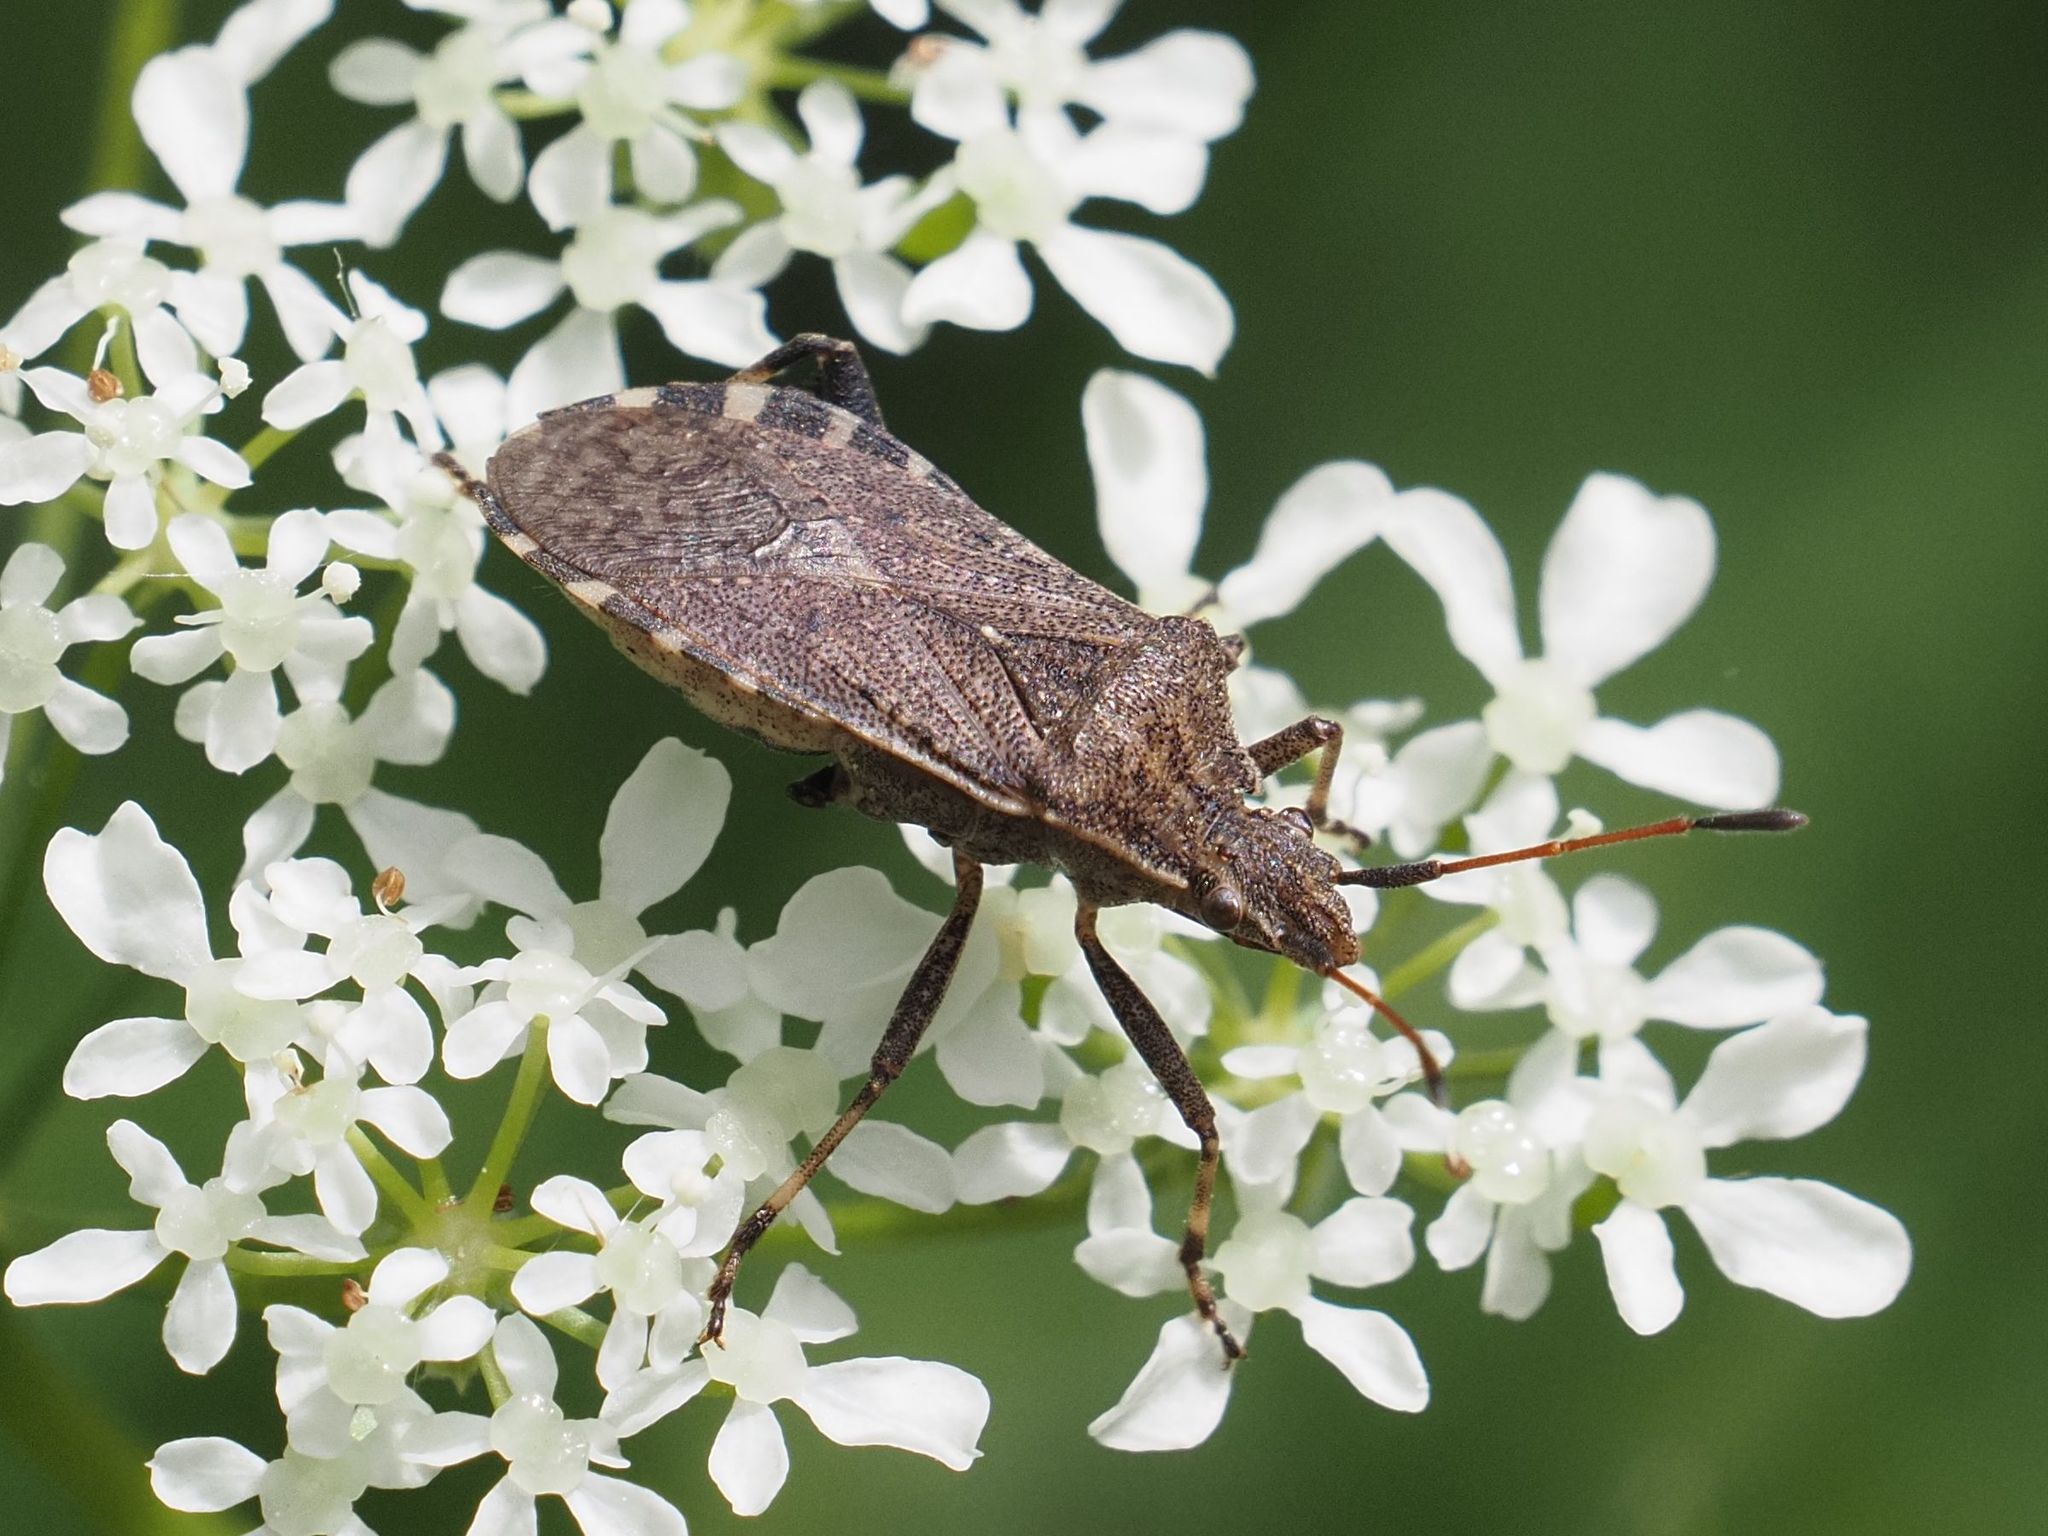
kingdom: Animalia
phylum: Arthropoda
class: Insecta
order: Hemiptera
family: Coreidae
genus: Ceraleptus
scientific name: Ceraleptus gracilicornis
